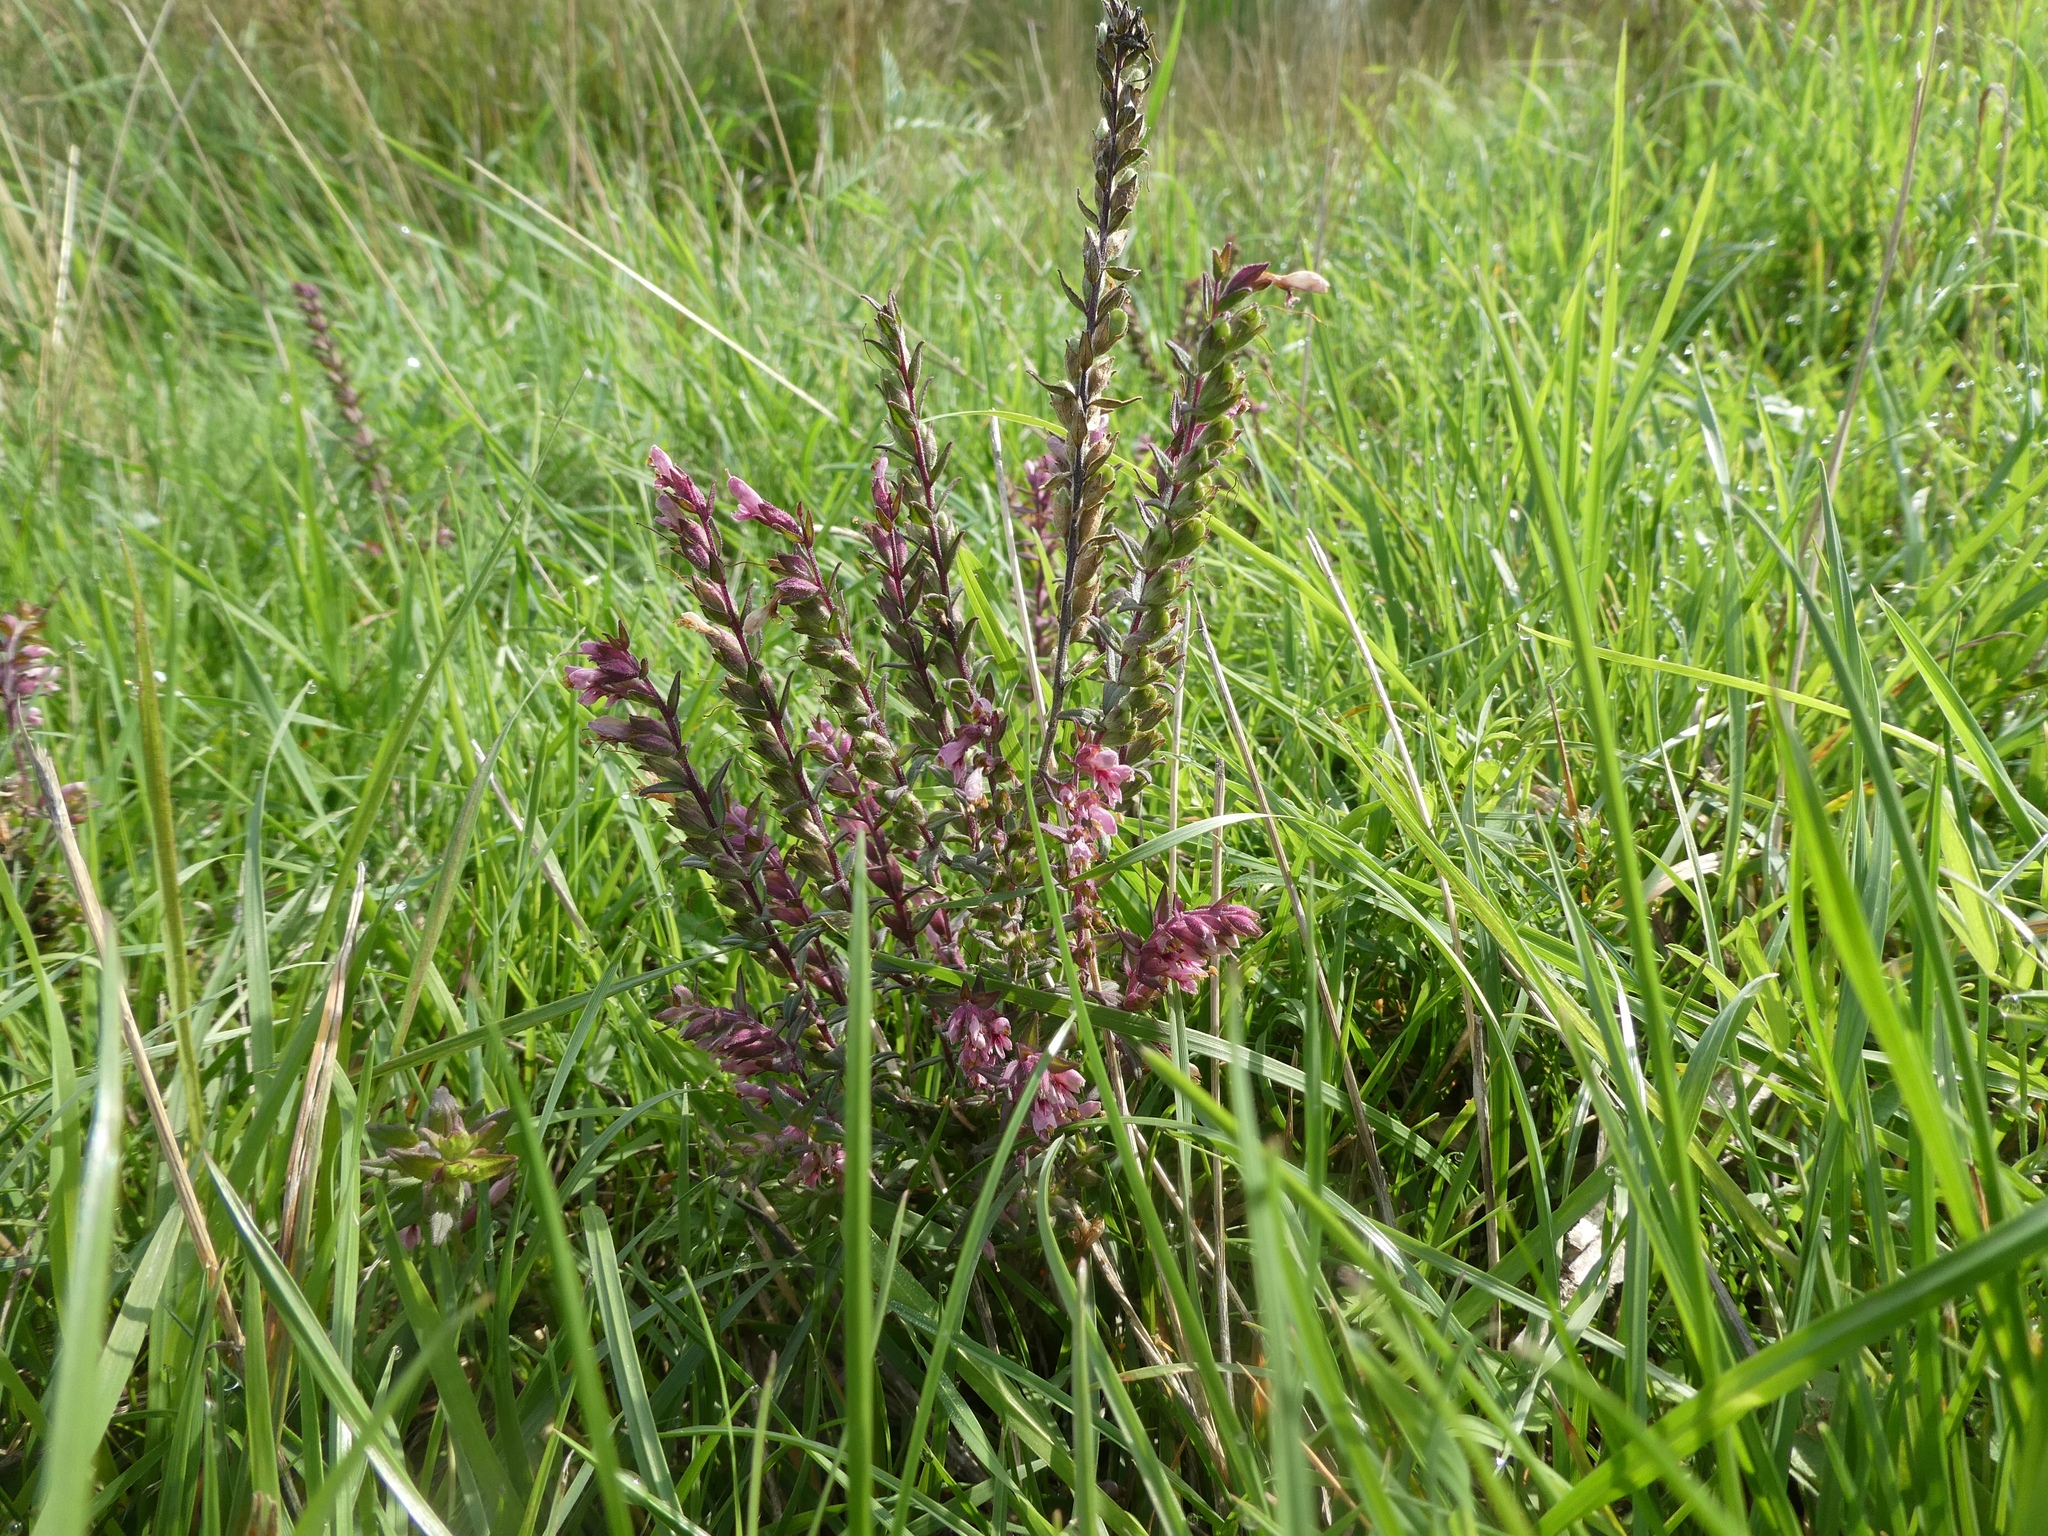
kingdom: Plantae
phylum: Tracheophyta
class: Magnoliopsida
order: Lamiales
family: Orobanchaceae
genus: Odontites
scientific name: Odontites vulgaris
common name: Broomrape
